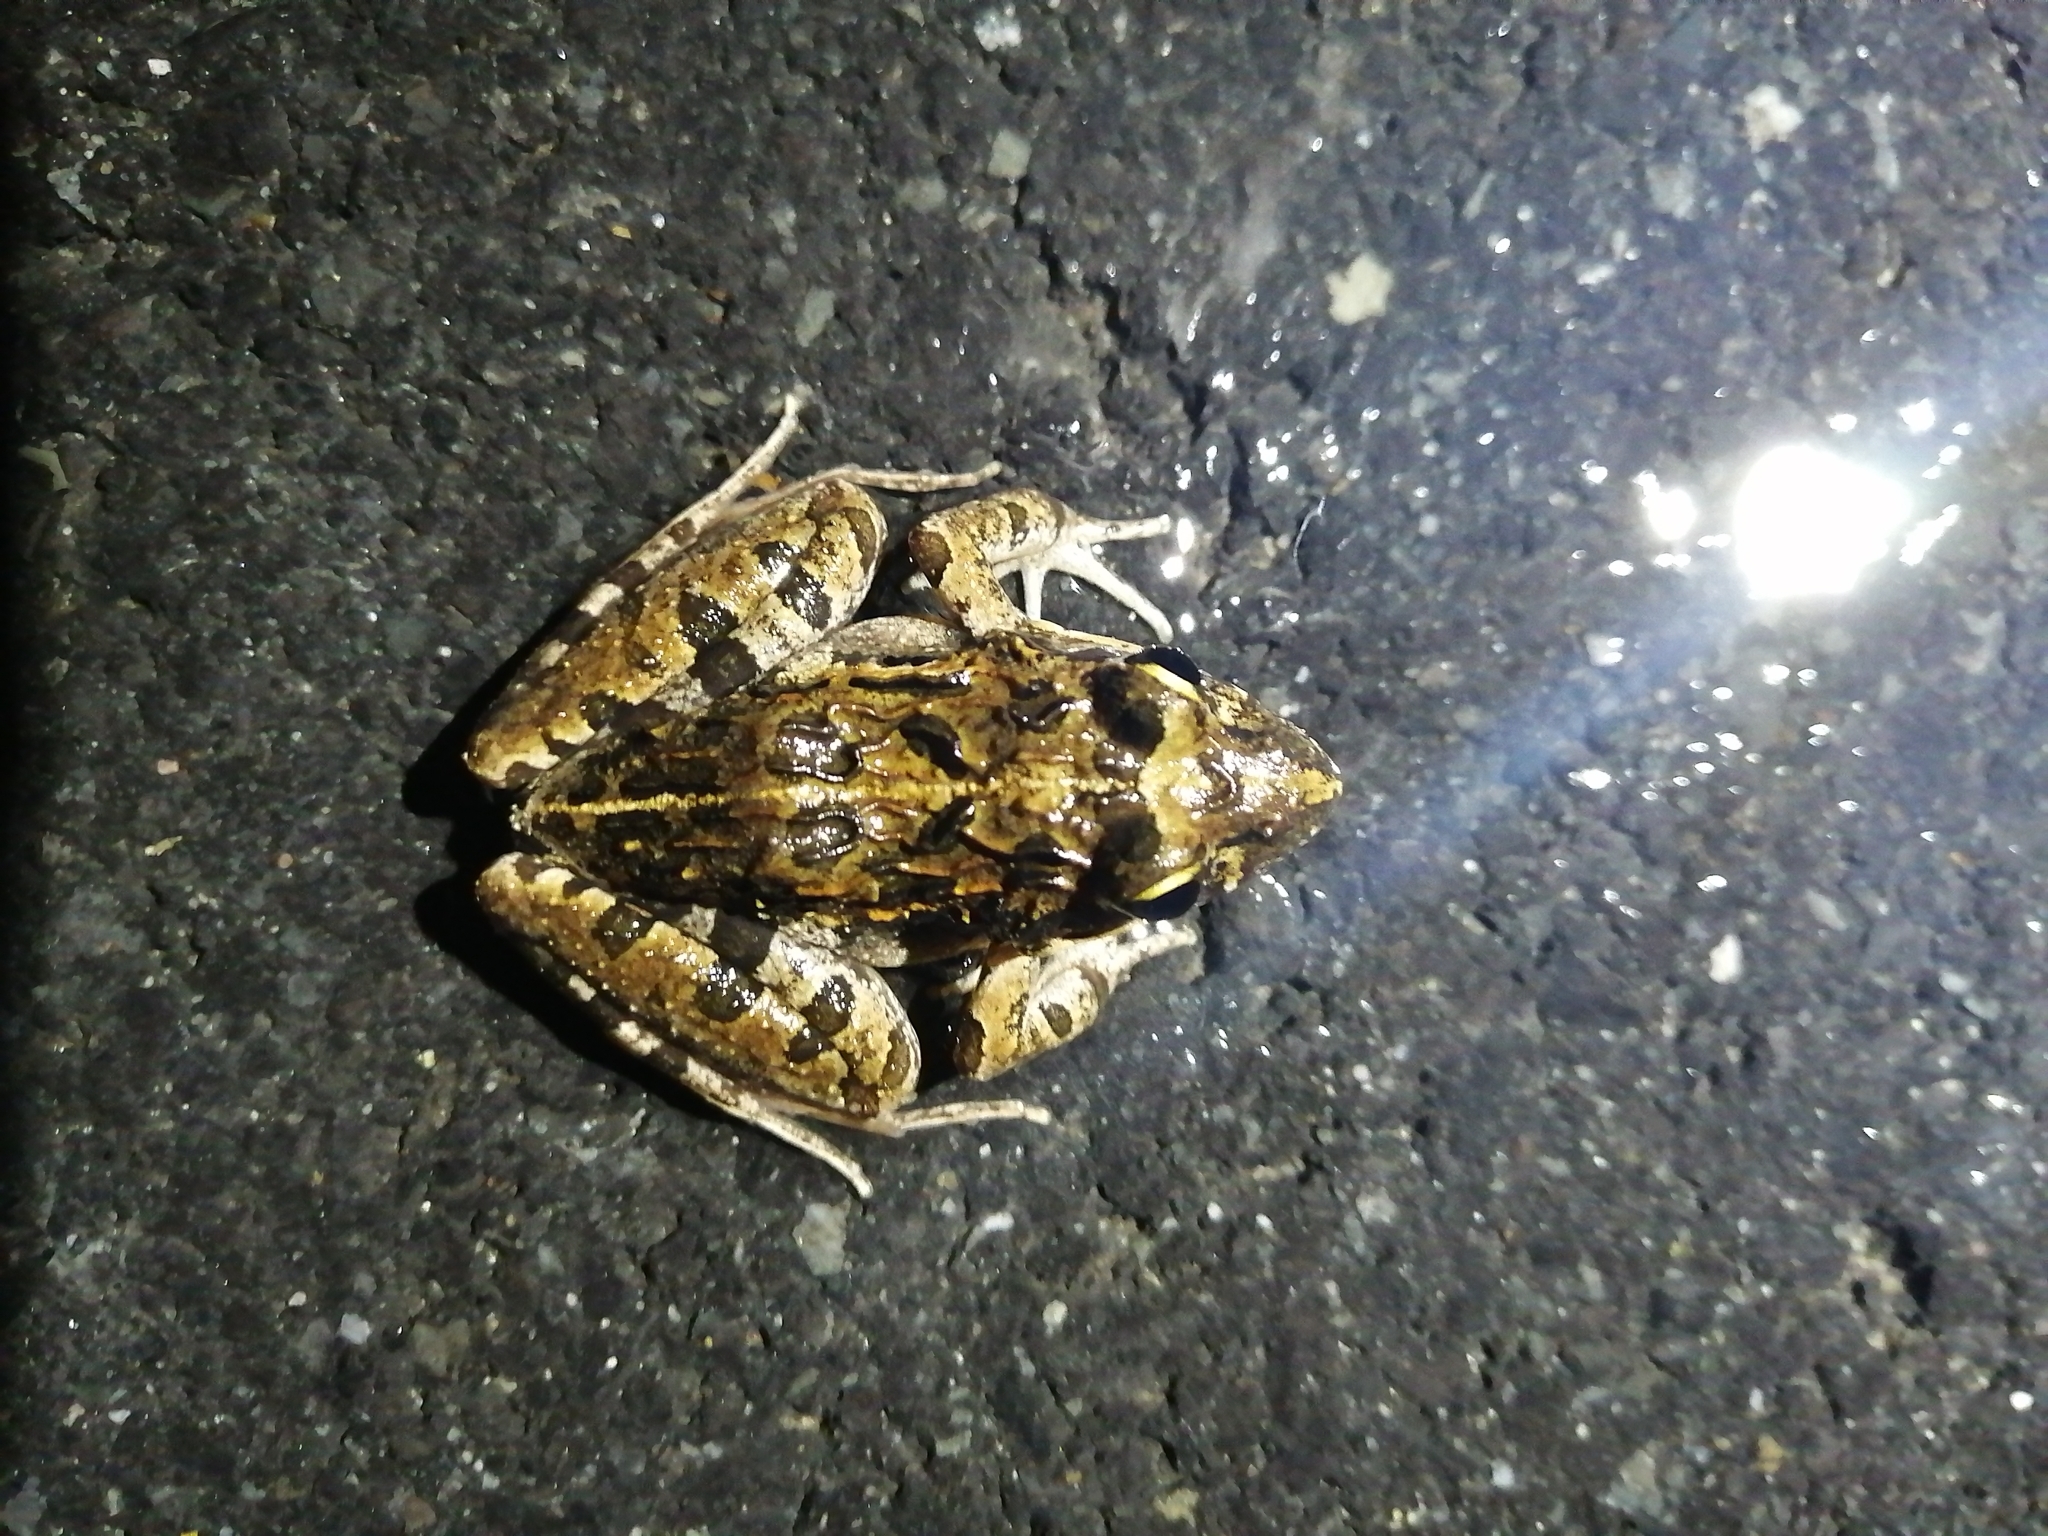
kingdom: Animalia
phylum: Chordata
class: Amphibia
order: Anura
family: Pyxicephalidae
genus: Strongylopus
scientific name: Strongylopus grayii
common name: Gray's stream frog
